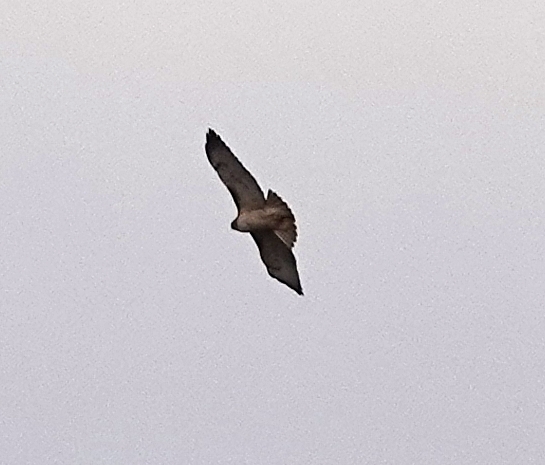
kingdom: Animalia
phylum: Chordata
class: Aves
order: Accipitriformes
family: Accipitridae
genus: Buteo
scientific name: Buteo jamaicensis
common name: Red-tailed hawk
